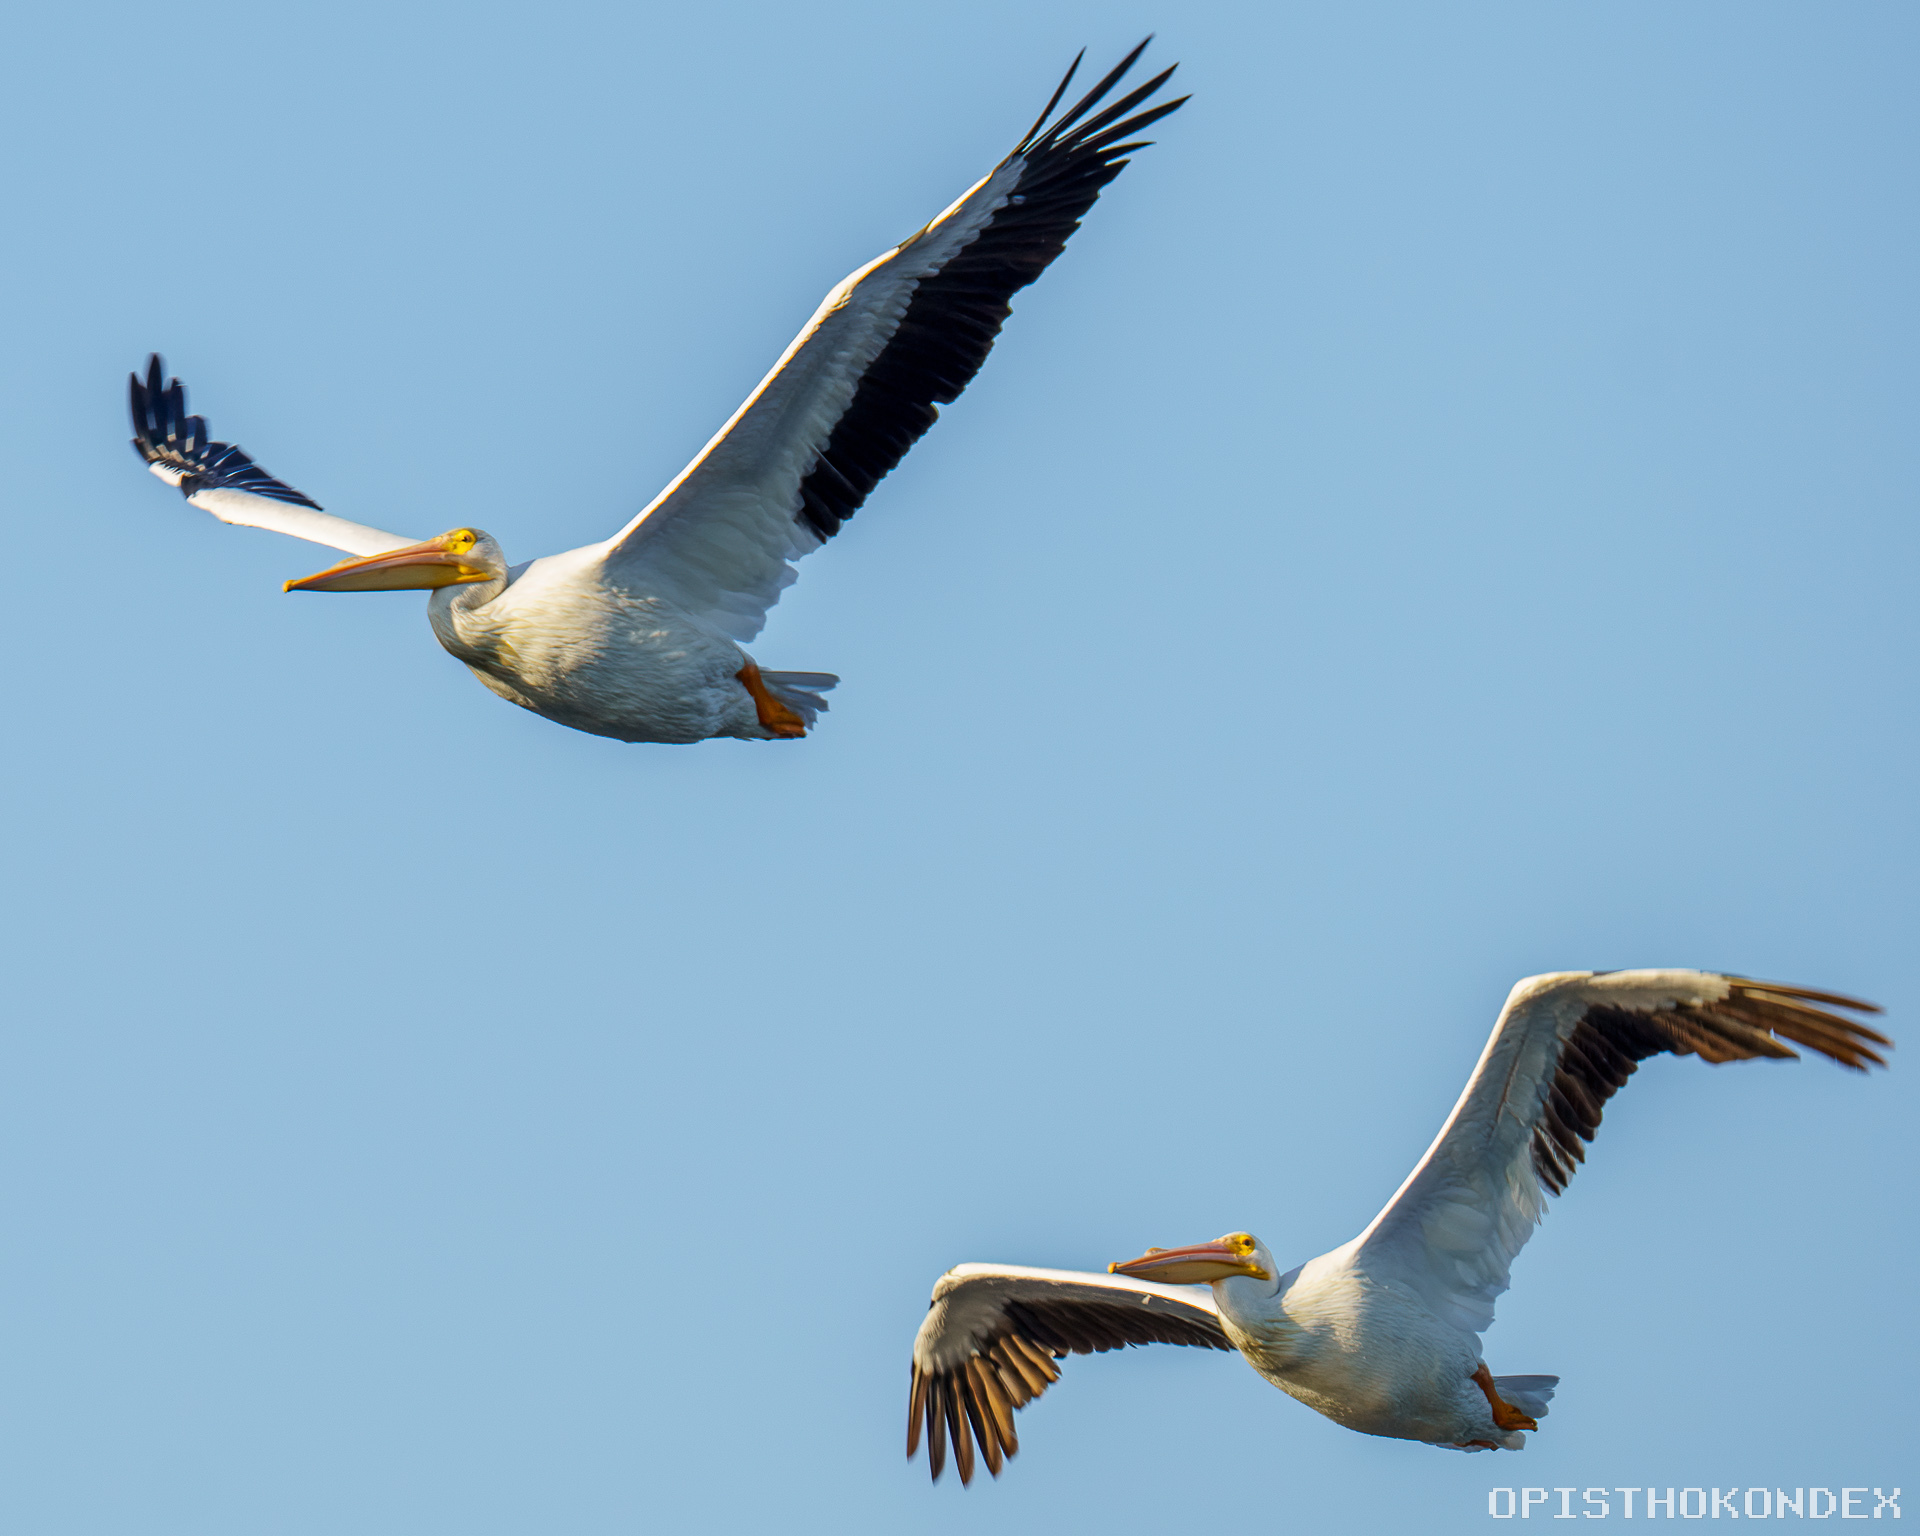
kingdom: Animalia
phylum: Chordata
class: Aves
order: Pelecaniformes
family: Pelecanidae
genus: Pelecanus
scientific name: Pelecanus erythrorhynchos
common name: American white pelican
